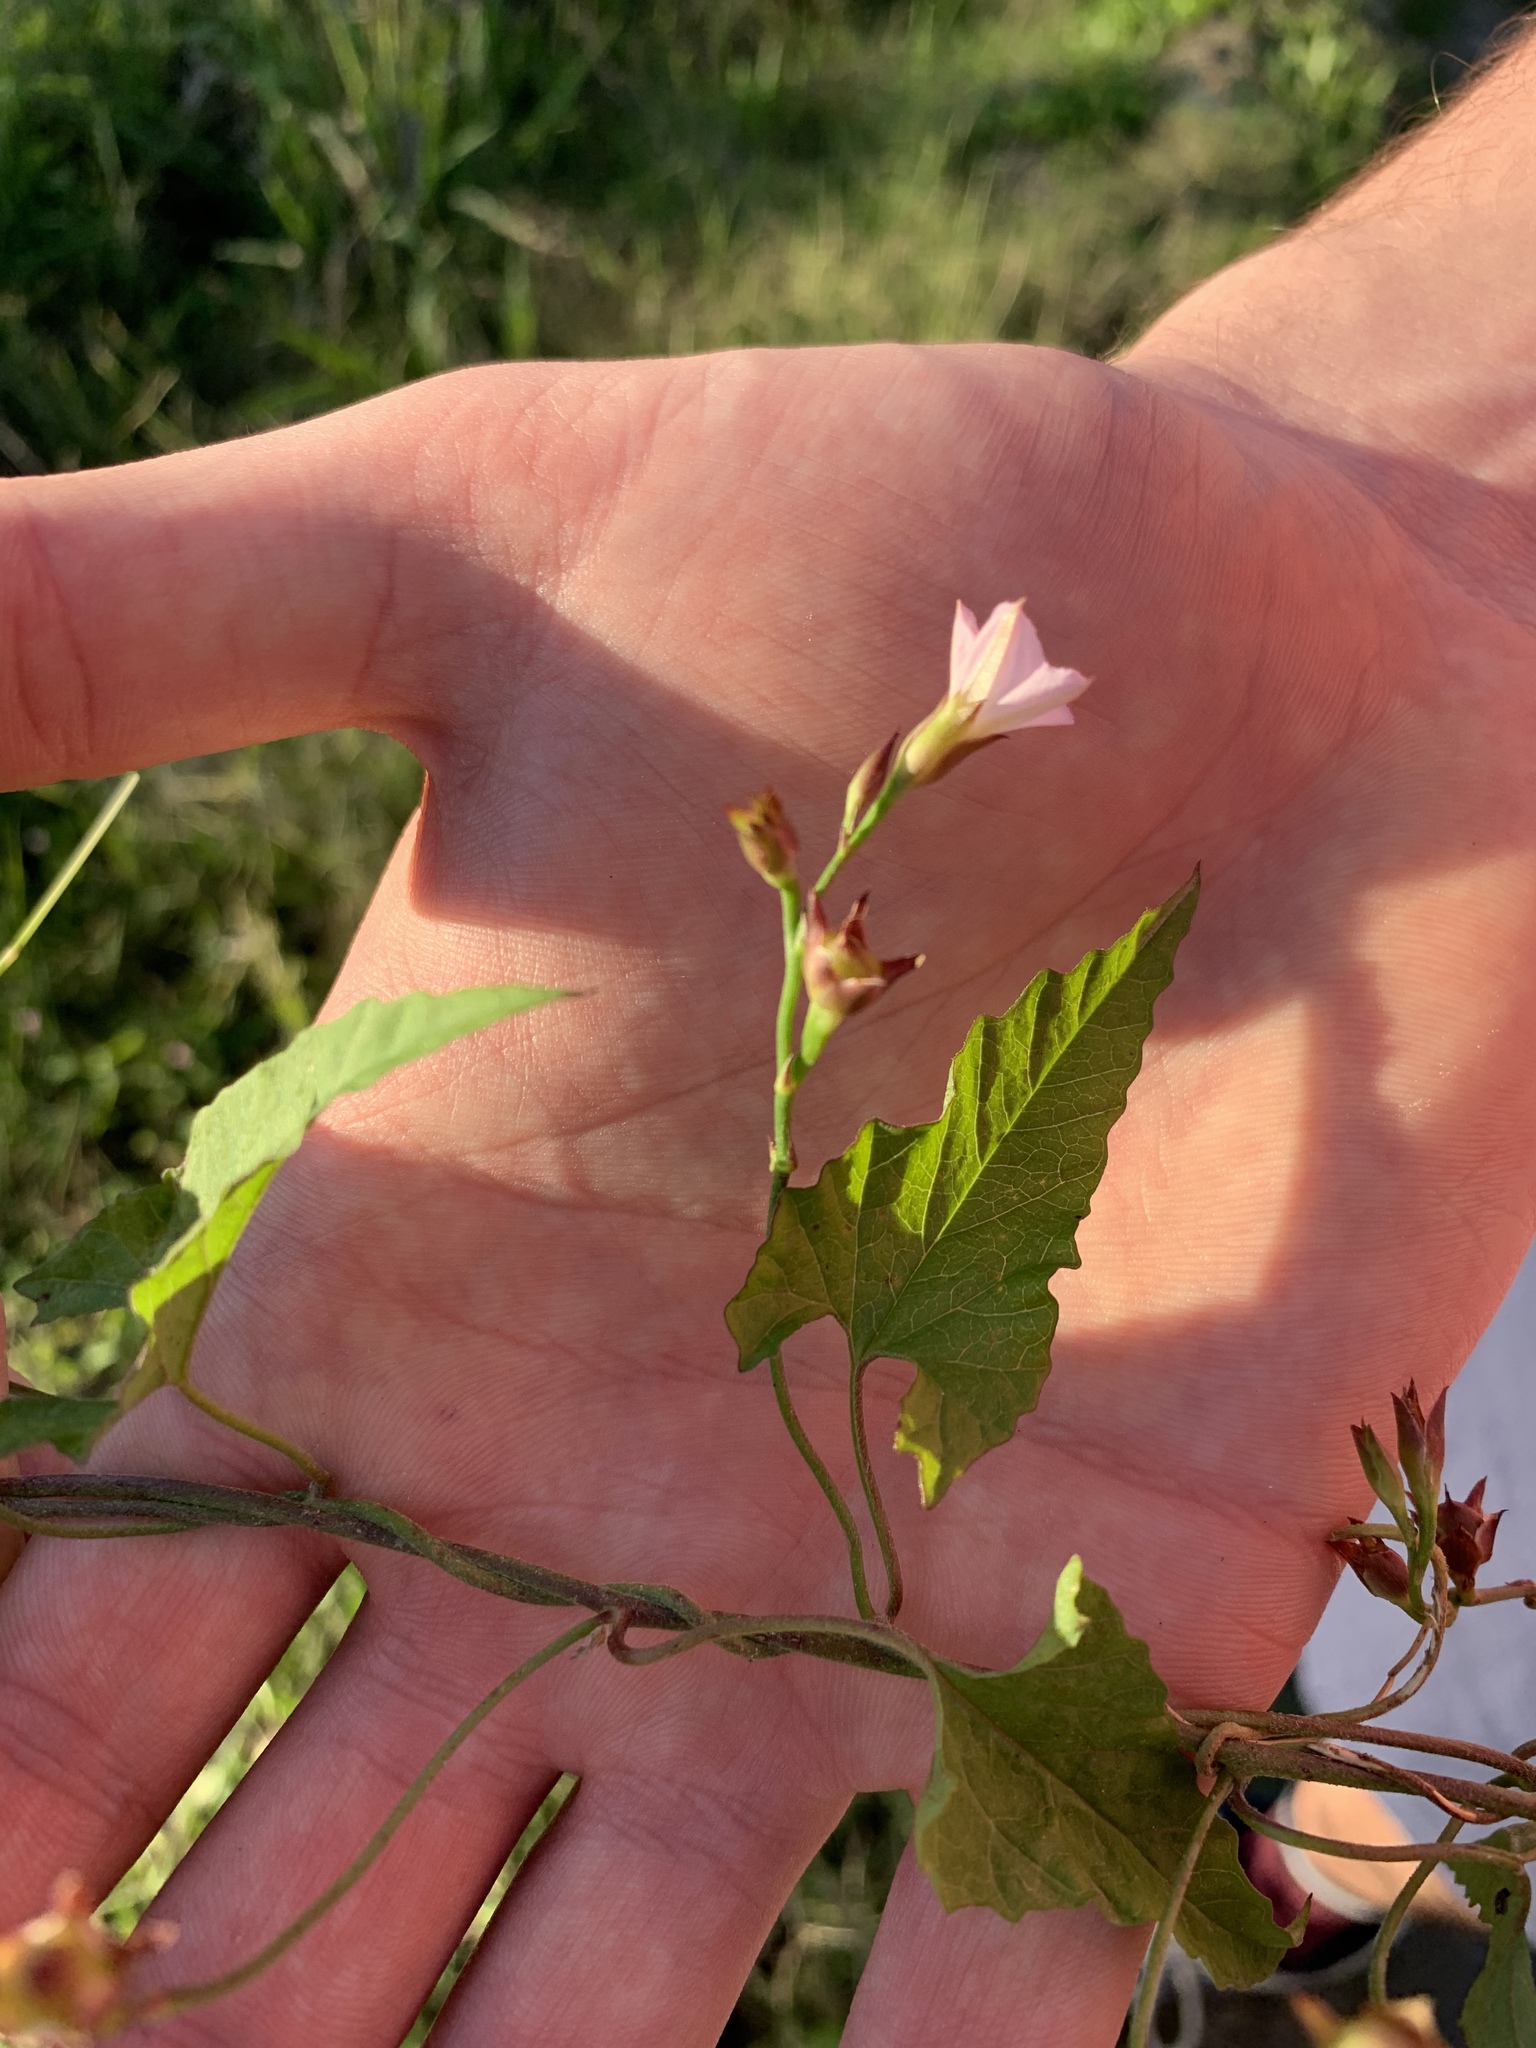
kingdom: Plantae
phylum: Tracheophyta
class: Magnoliopsida
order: Solanales
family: Convolvulaceae
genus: Convolvulus
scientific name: Convolvulus farinosus
